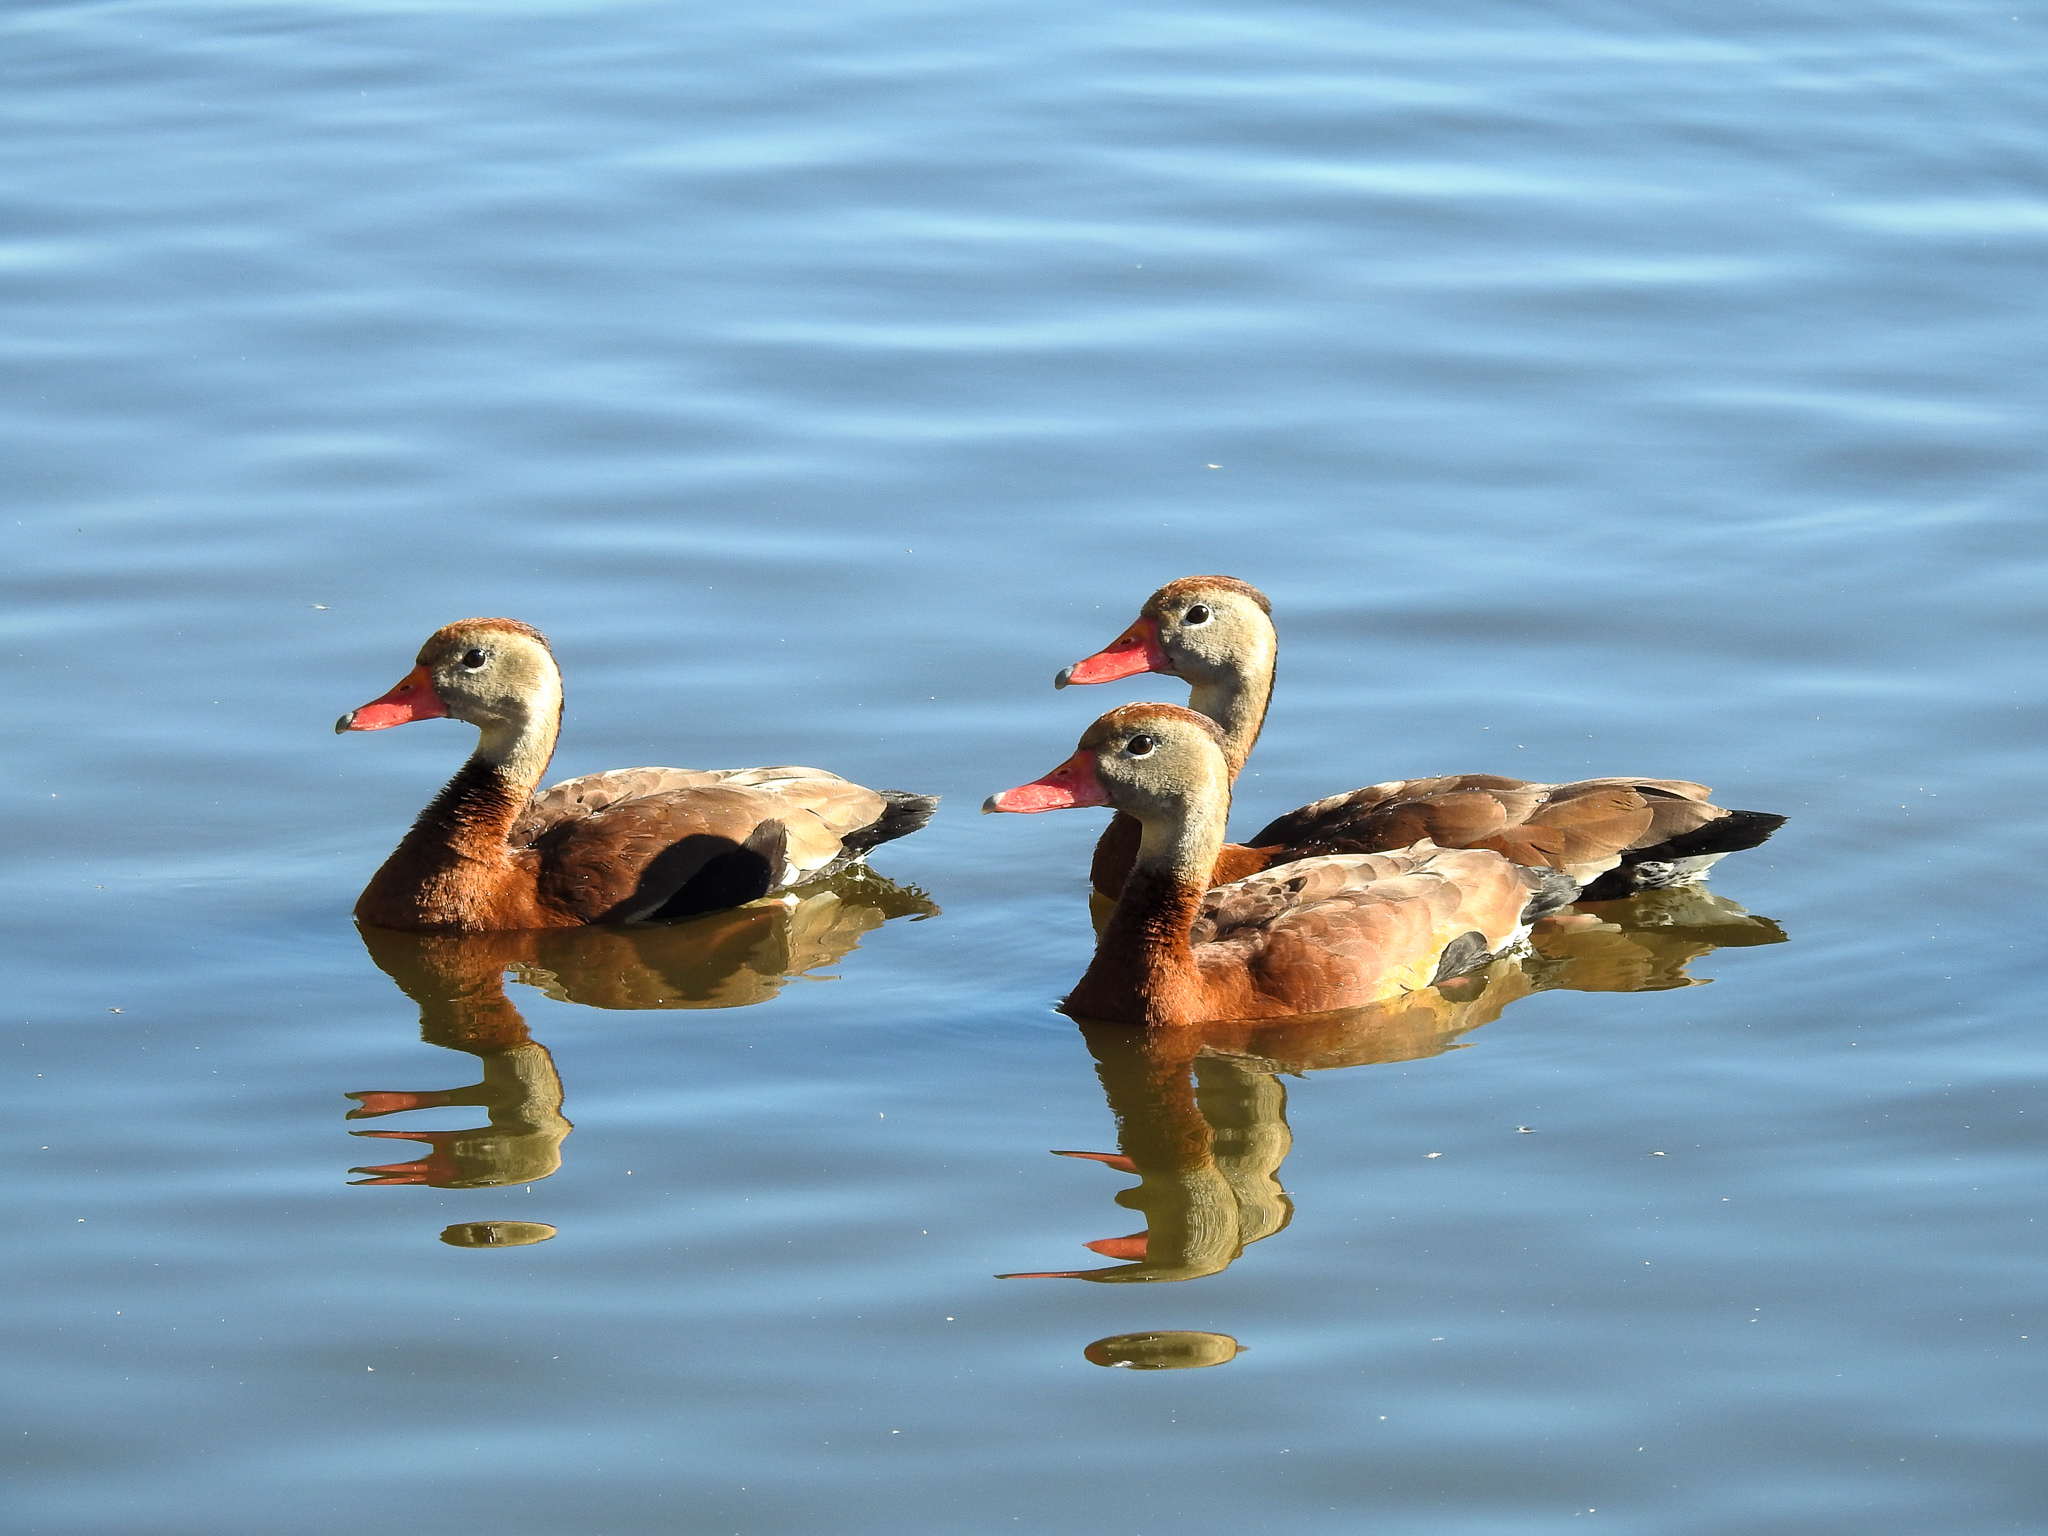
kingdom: Animalia
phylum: Chordata
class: Aves
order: Anseriformes
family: Anatidae
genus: Dendrocygna
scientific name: Dendrocygna autumnalis
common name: Black-bellied whistling duck
